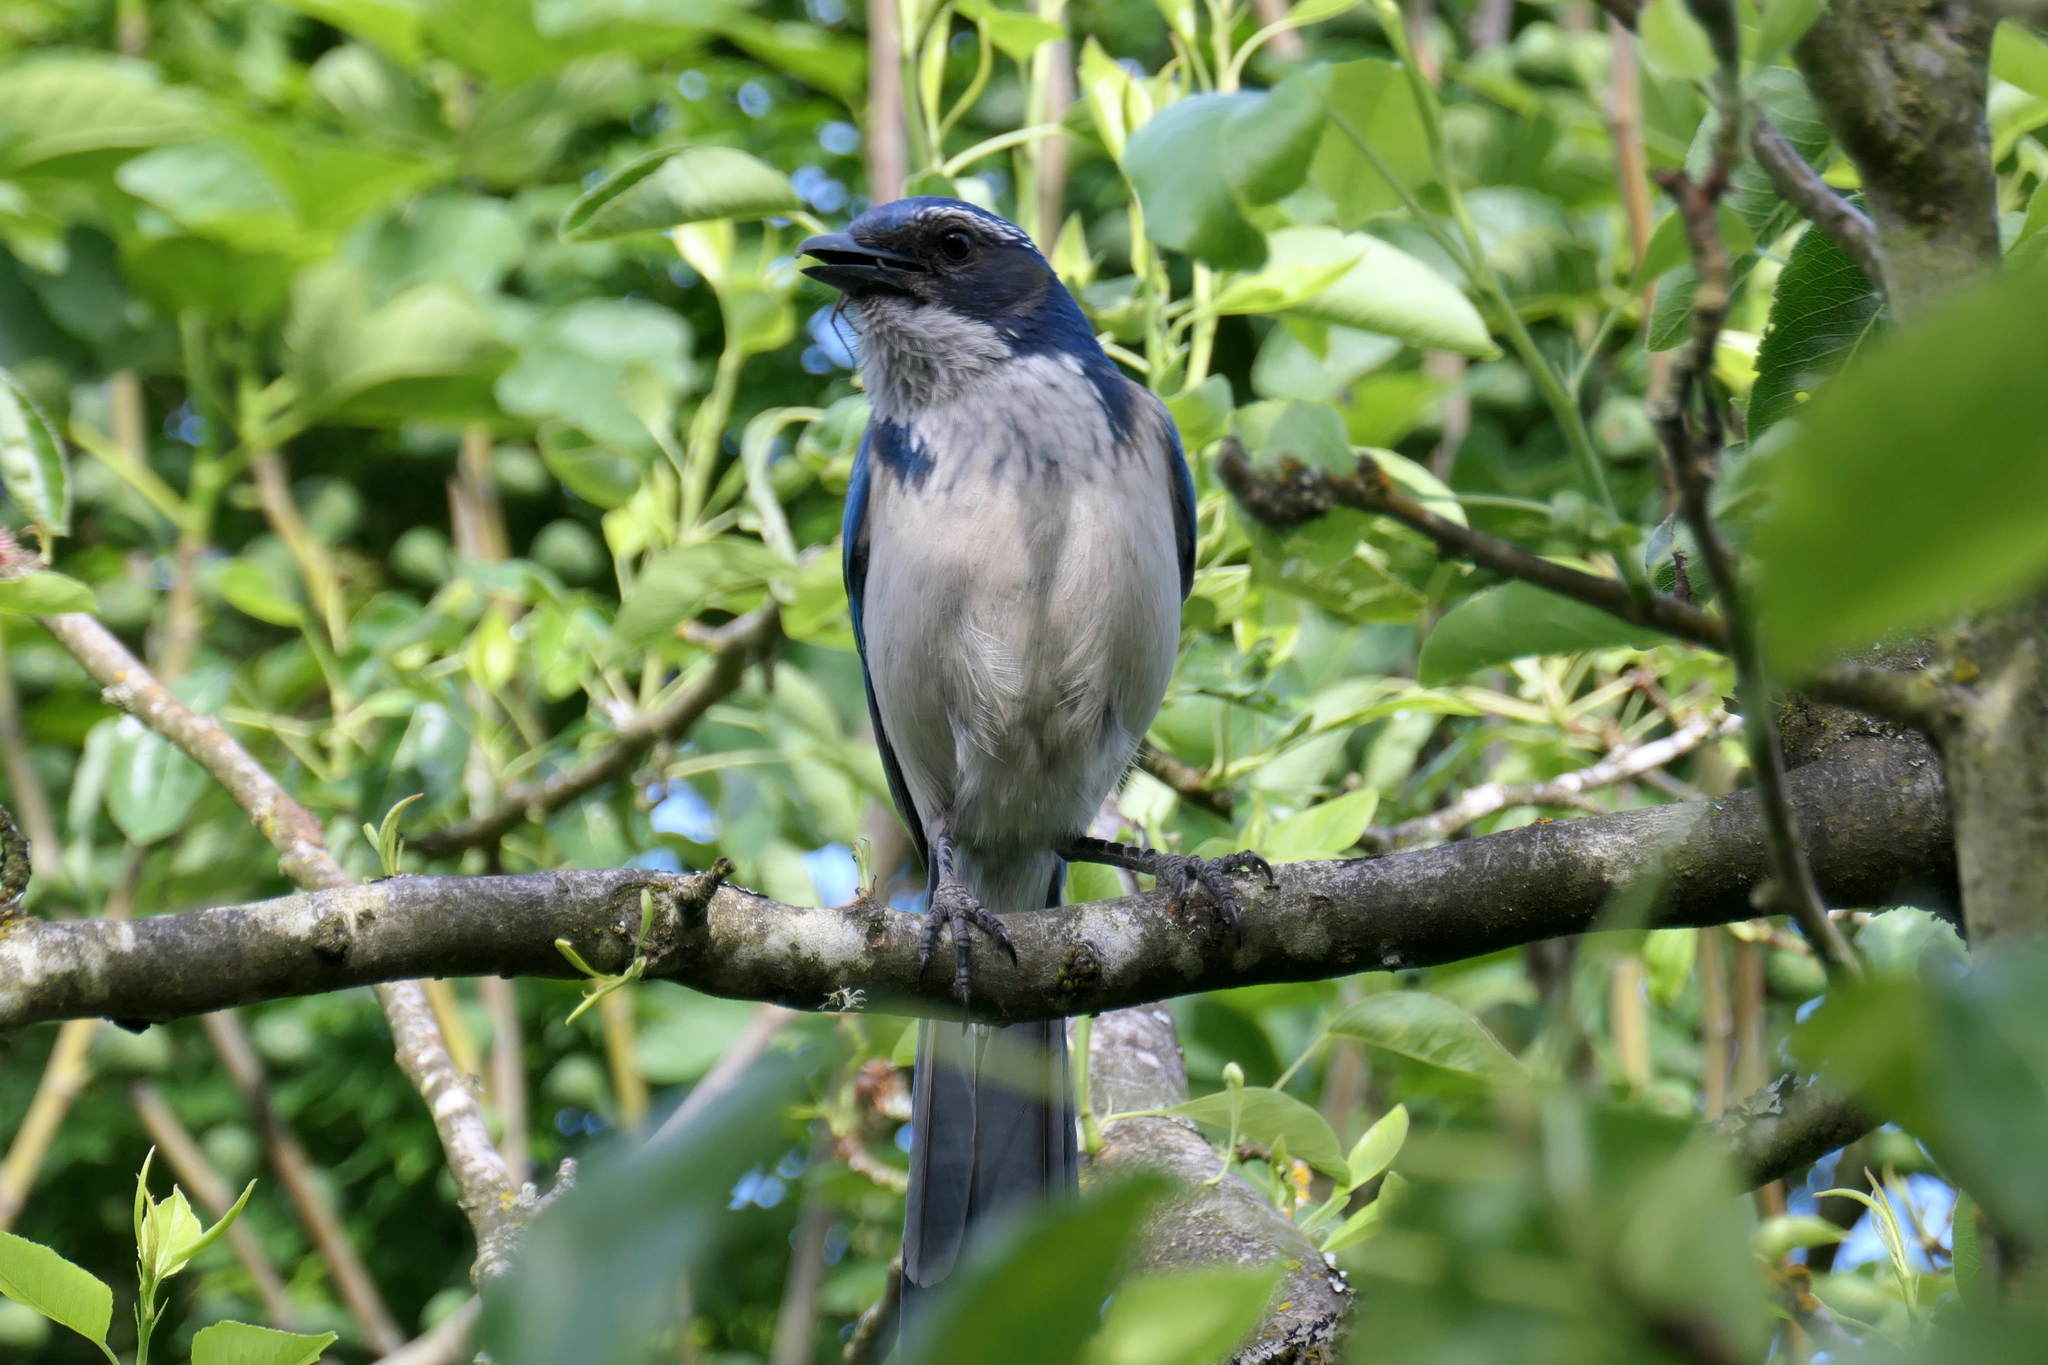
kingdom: Animalia
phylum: Chordata
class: Aves
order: Passeriformes
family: Corvidae
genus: Aphelocoma
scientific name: Aphelocoma californica
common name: California scrub-jay
